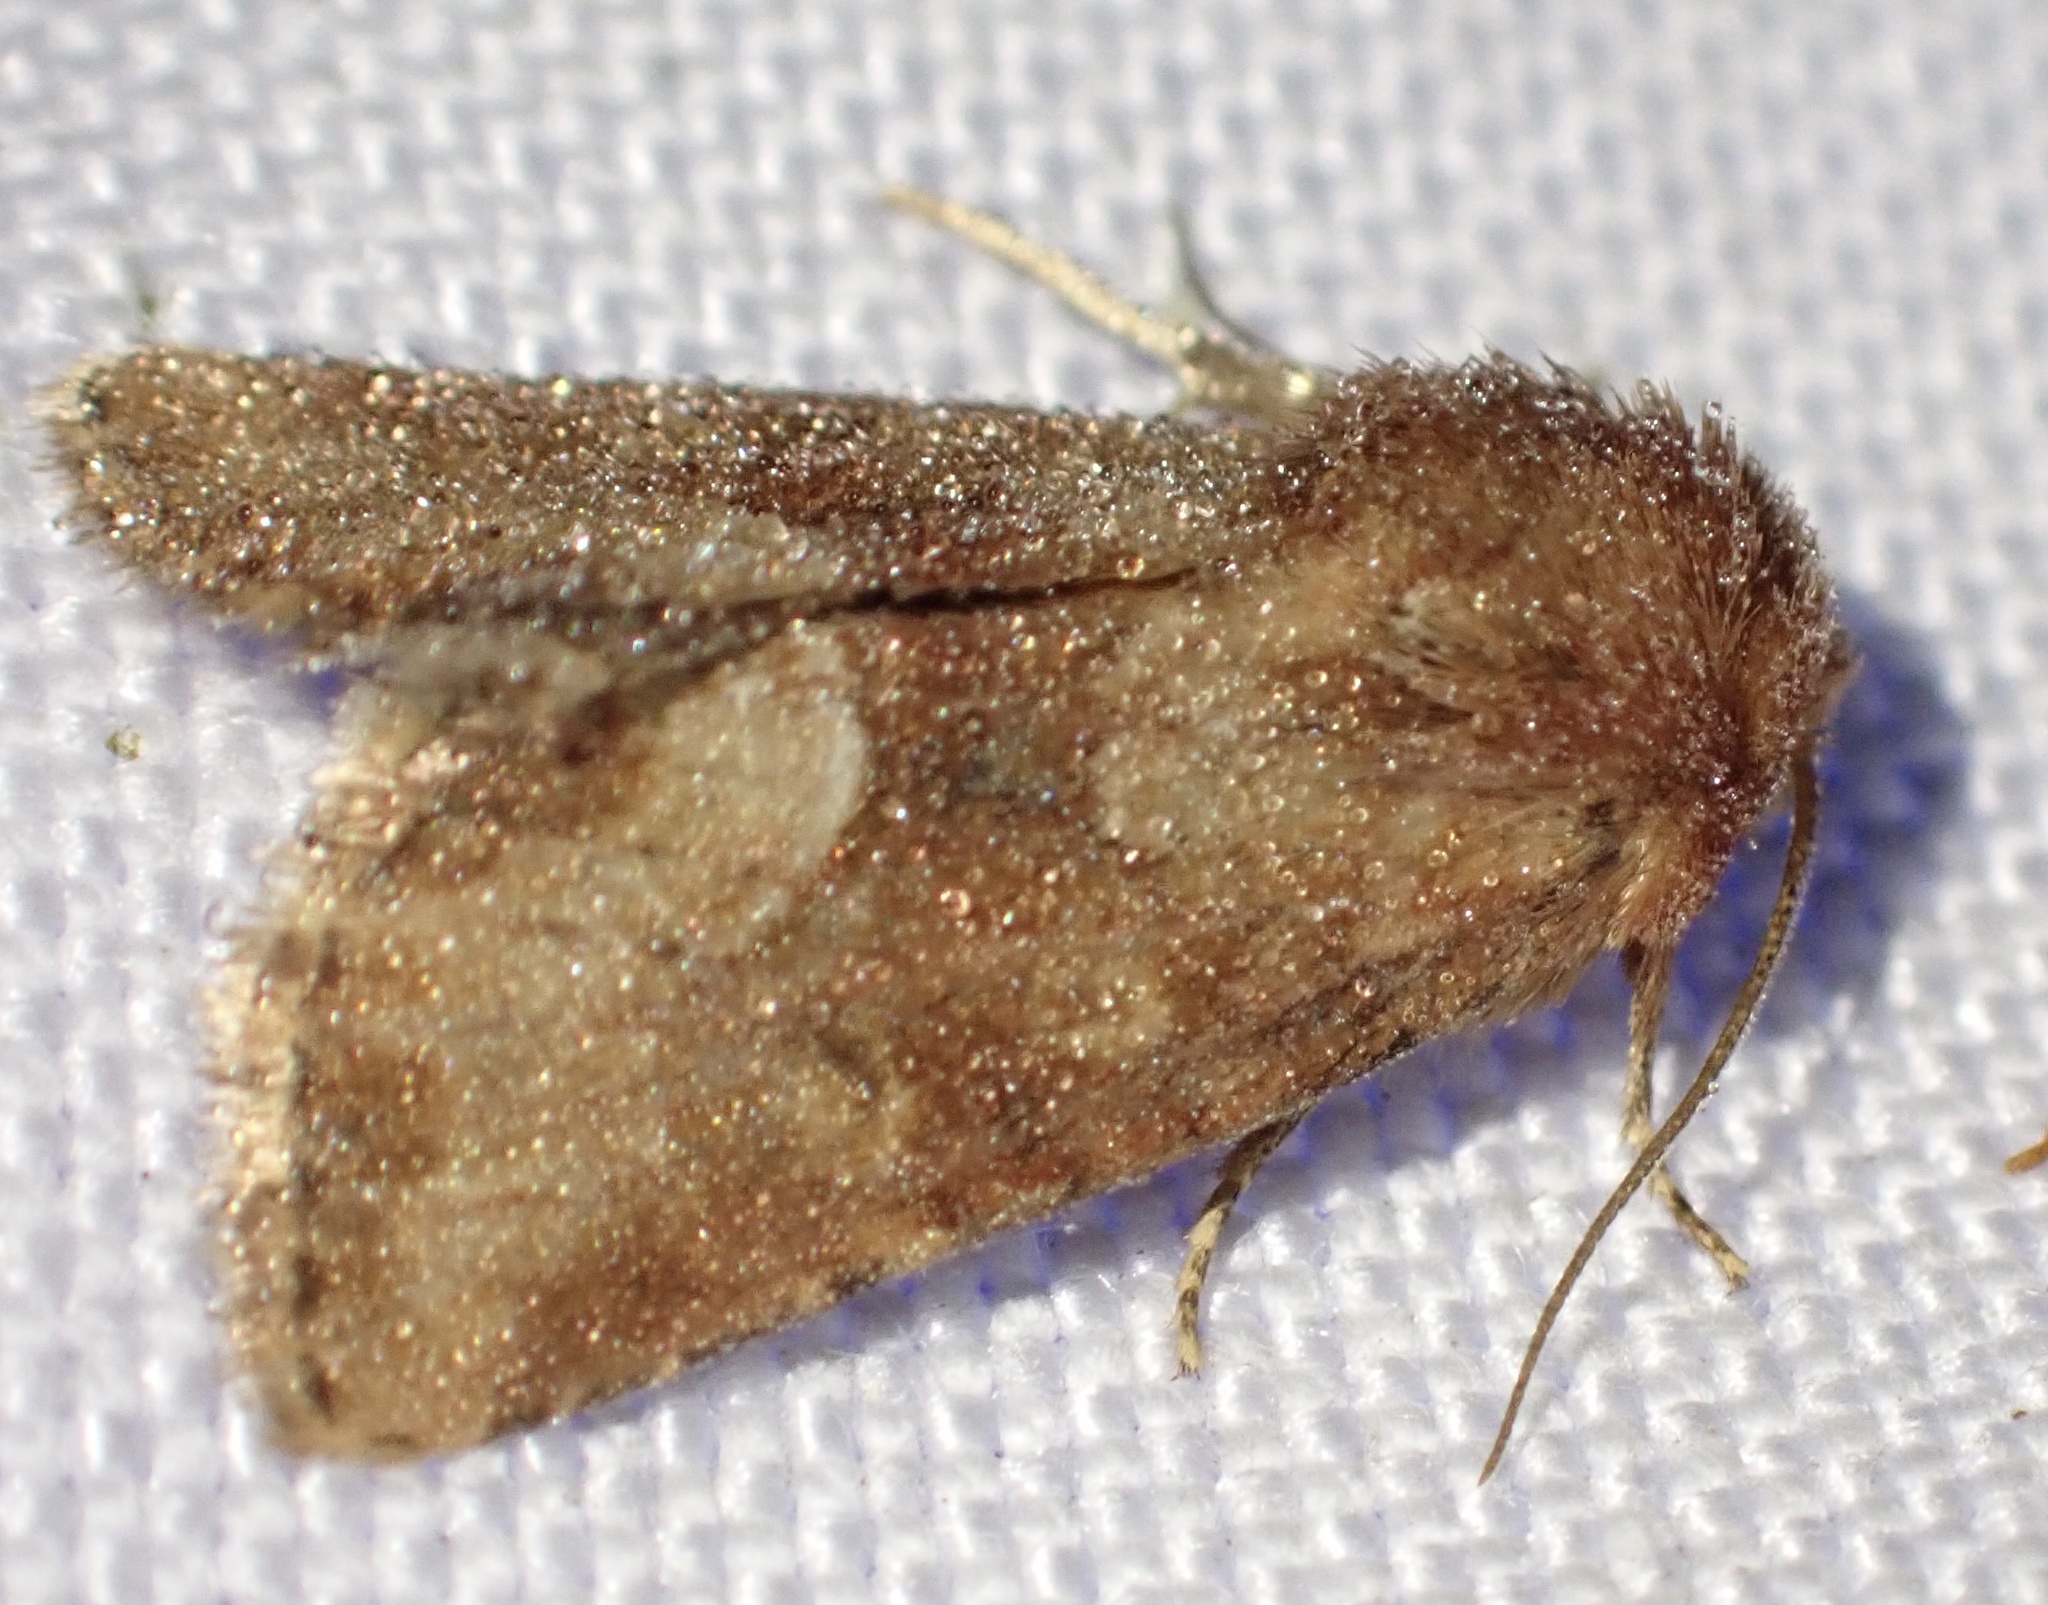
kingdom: Animalia
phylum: Arthropoda
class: Insecta
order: Lepidoptera
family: Noctuidae
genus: Oligia
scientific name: Oligia fasciuncula
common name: Middle-barred minor
